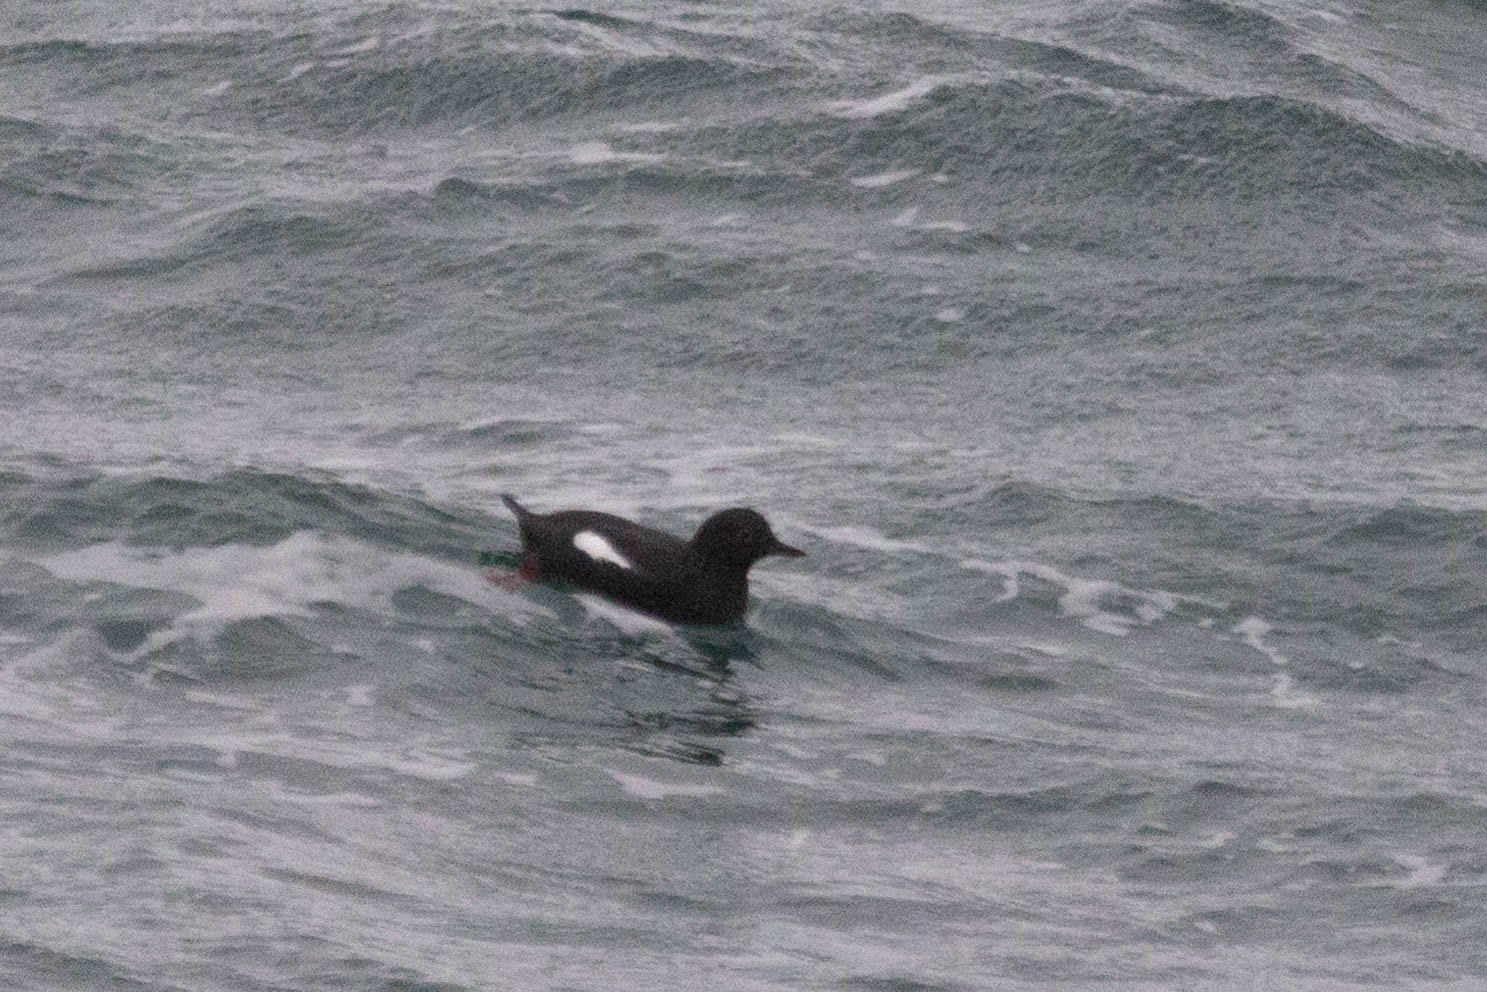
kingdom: Animalia
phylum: Chordata
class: Aves
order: Charadriiformes
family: Alcidae
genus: Cepphus
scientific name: Cepphus columba
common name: Pigeon guillemot
